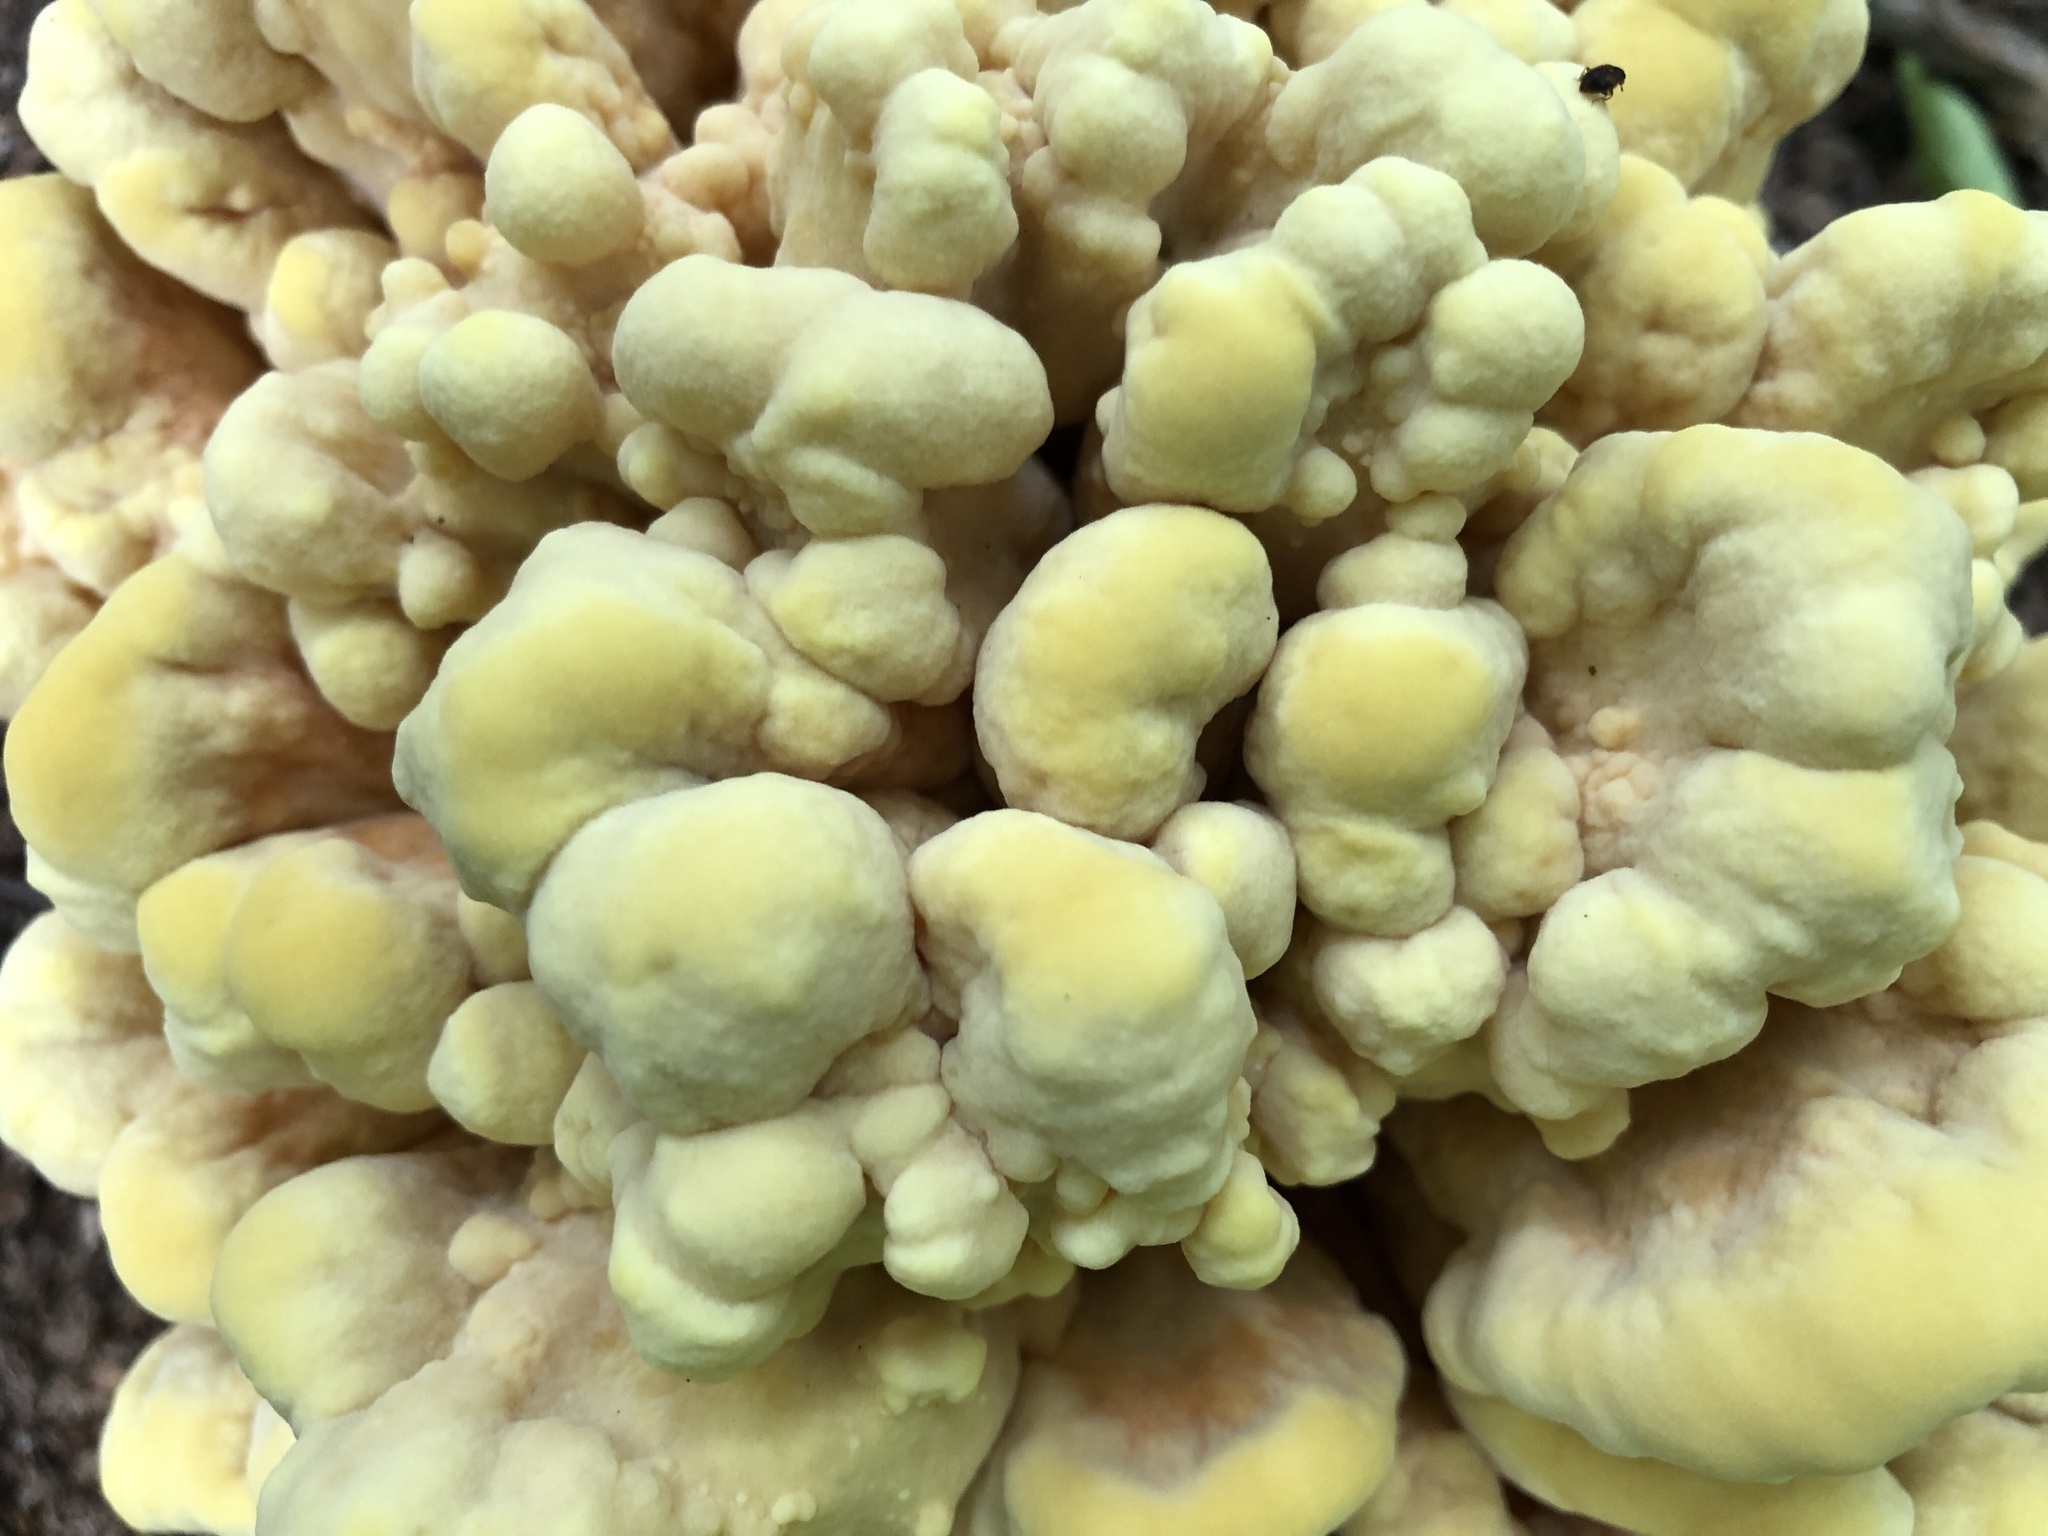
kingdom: Fungi
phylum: Basidiomycota
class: Agaricomycetes
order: Polyporales
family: Laetiporaceae
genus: Laetiporus
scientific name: Laetiporus sulphureus
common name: Chicken of the woods
